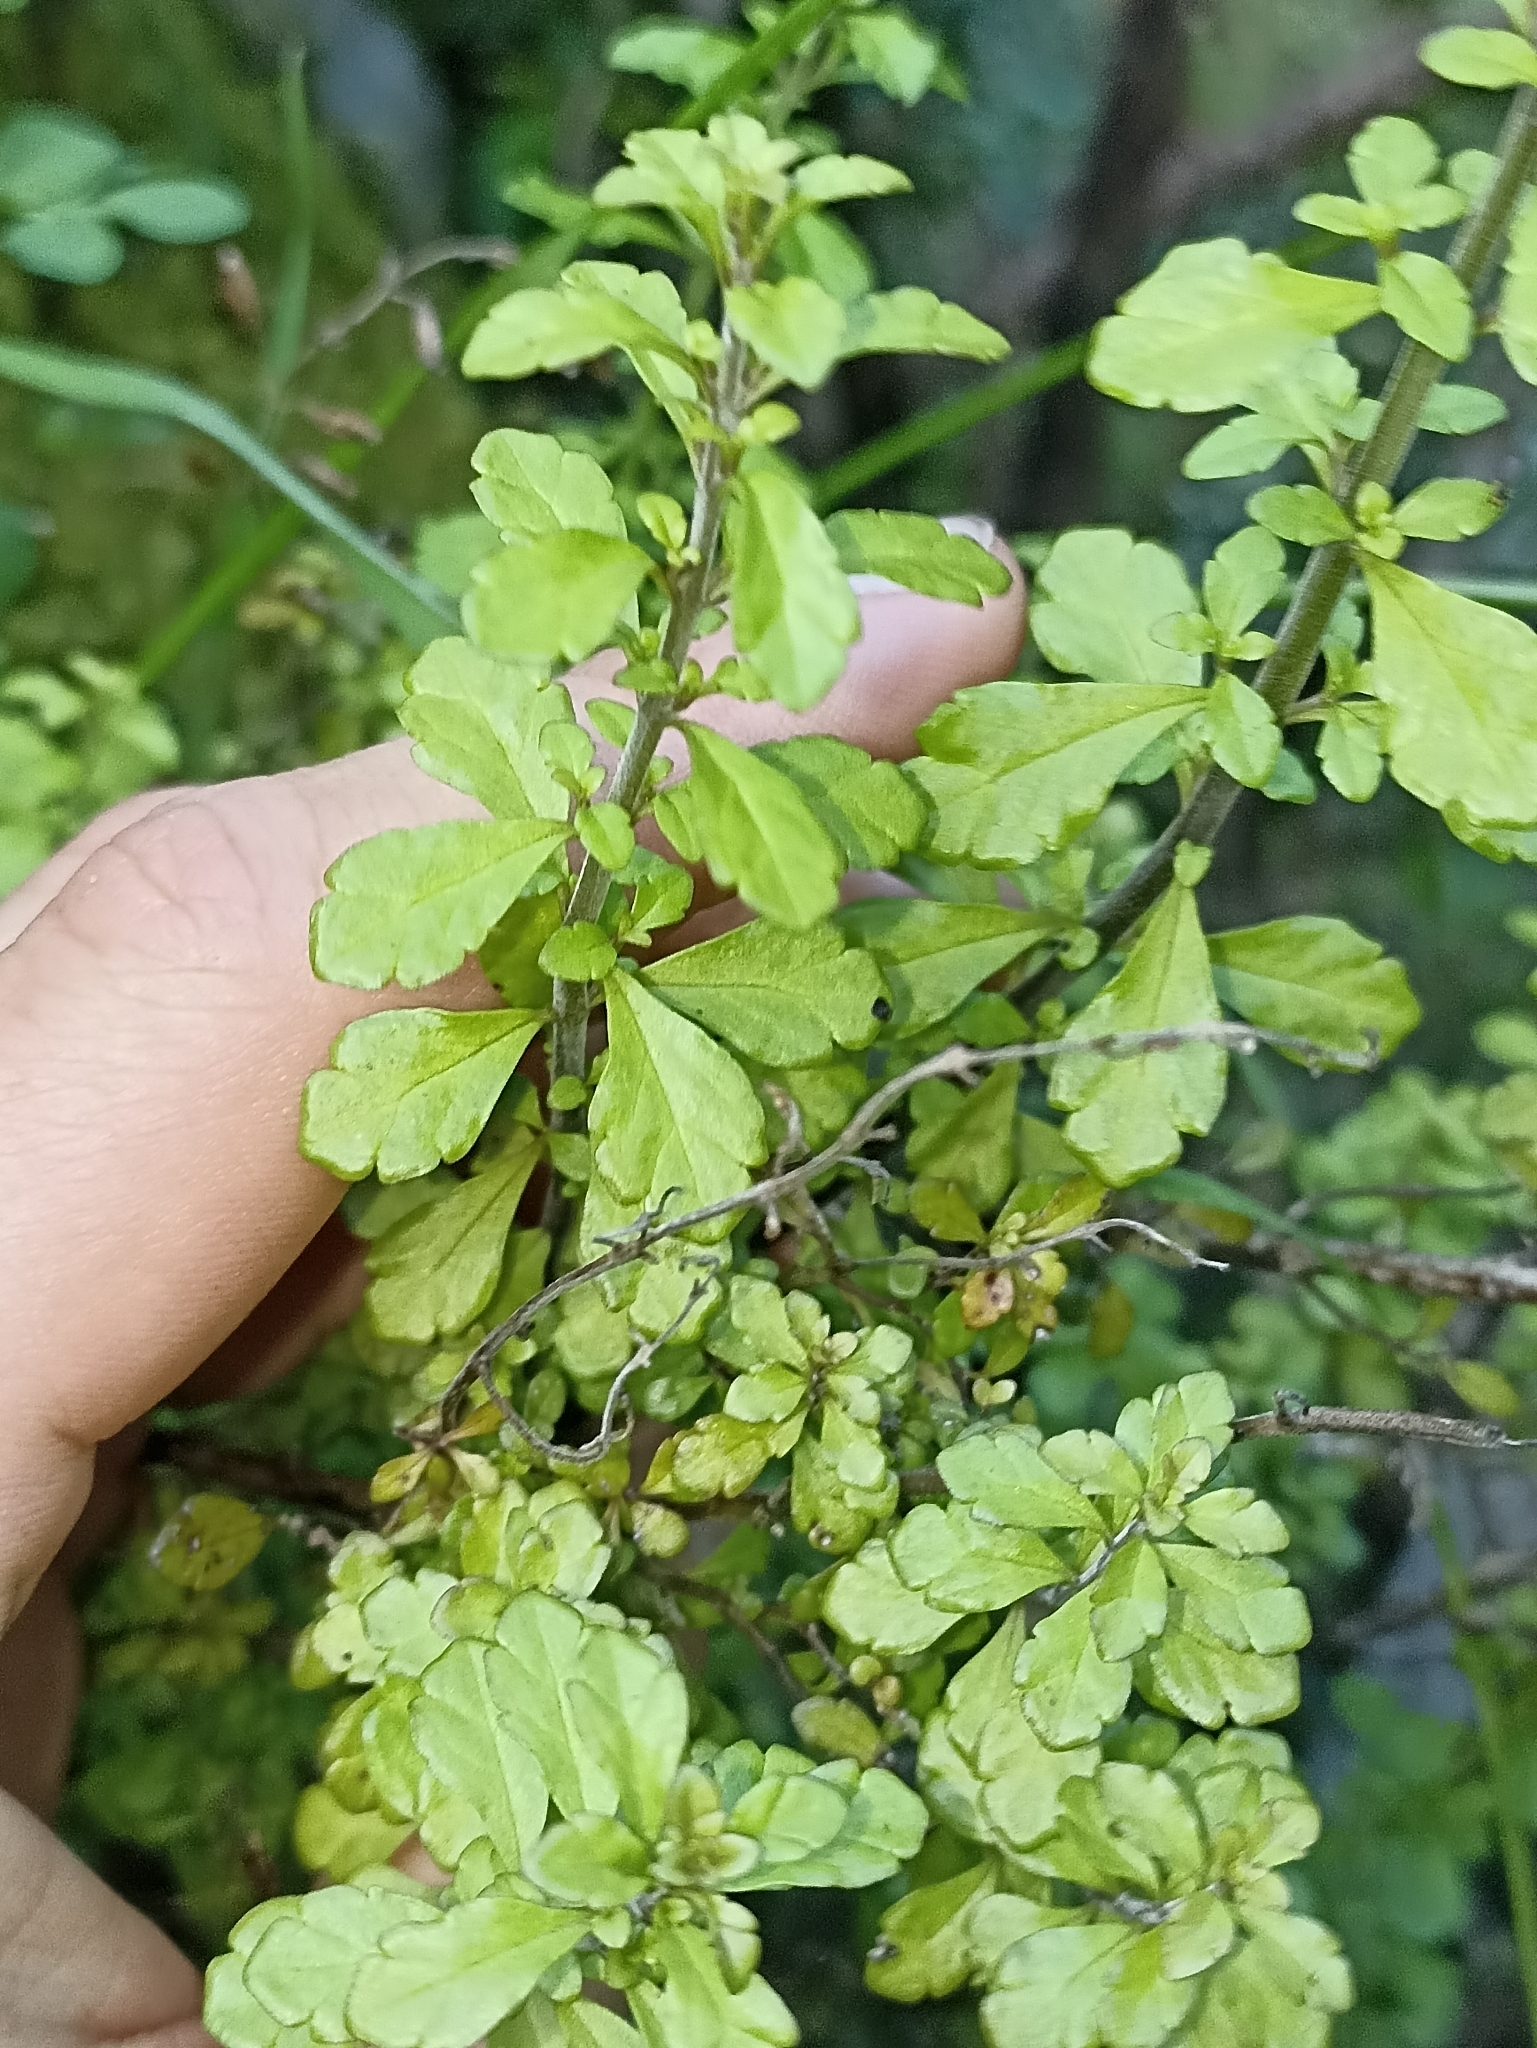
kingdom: Plantae
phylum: Tracheophyta
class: Magnoliopsida
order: Lamiales
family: Orobanchaceae
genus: Euphrasia
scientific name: Euphrasia cuneata
